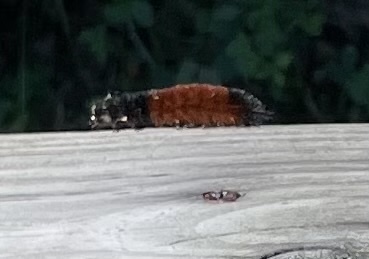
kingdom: Animalia
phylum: Arthropoda
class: Insecta
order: Lepidoptera
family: Erebidae
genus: Pyrrharctia
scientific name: Pyrrharctia isabella
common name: Isabella tiger moth
